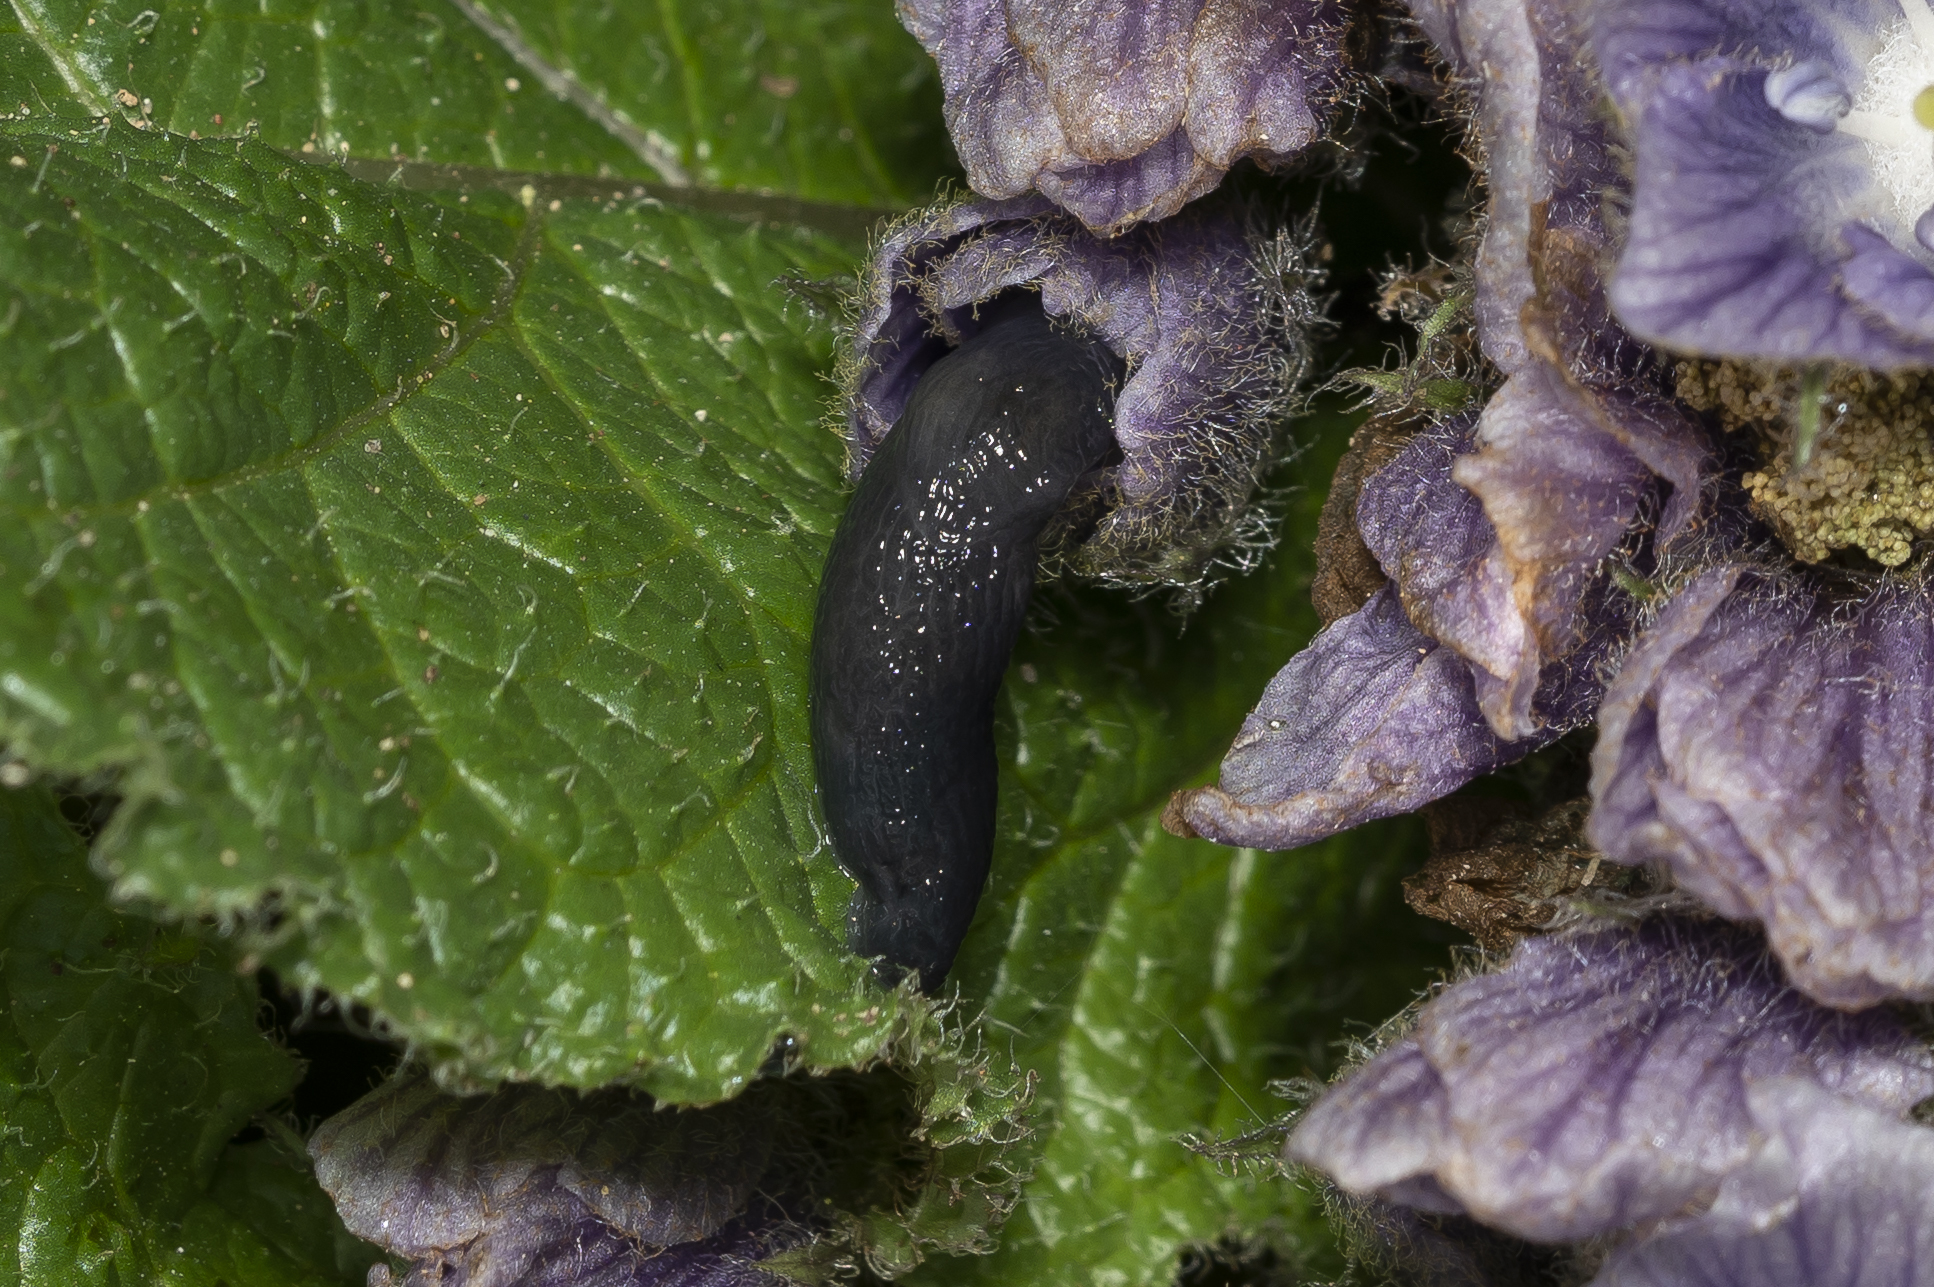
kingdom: Animalia
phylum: Mollusca
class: Gastropoda
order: Stylommatophora
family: Agriolimacidae
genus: Deroceras
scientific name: Deroceras samium
